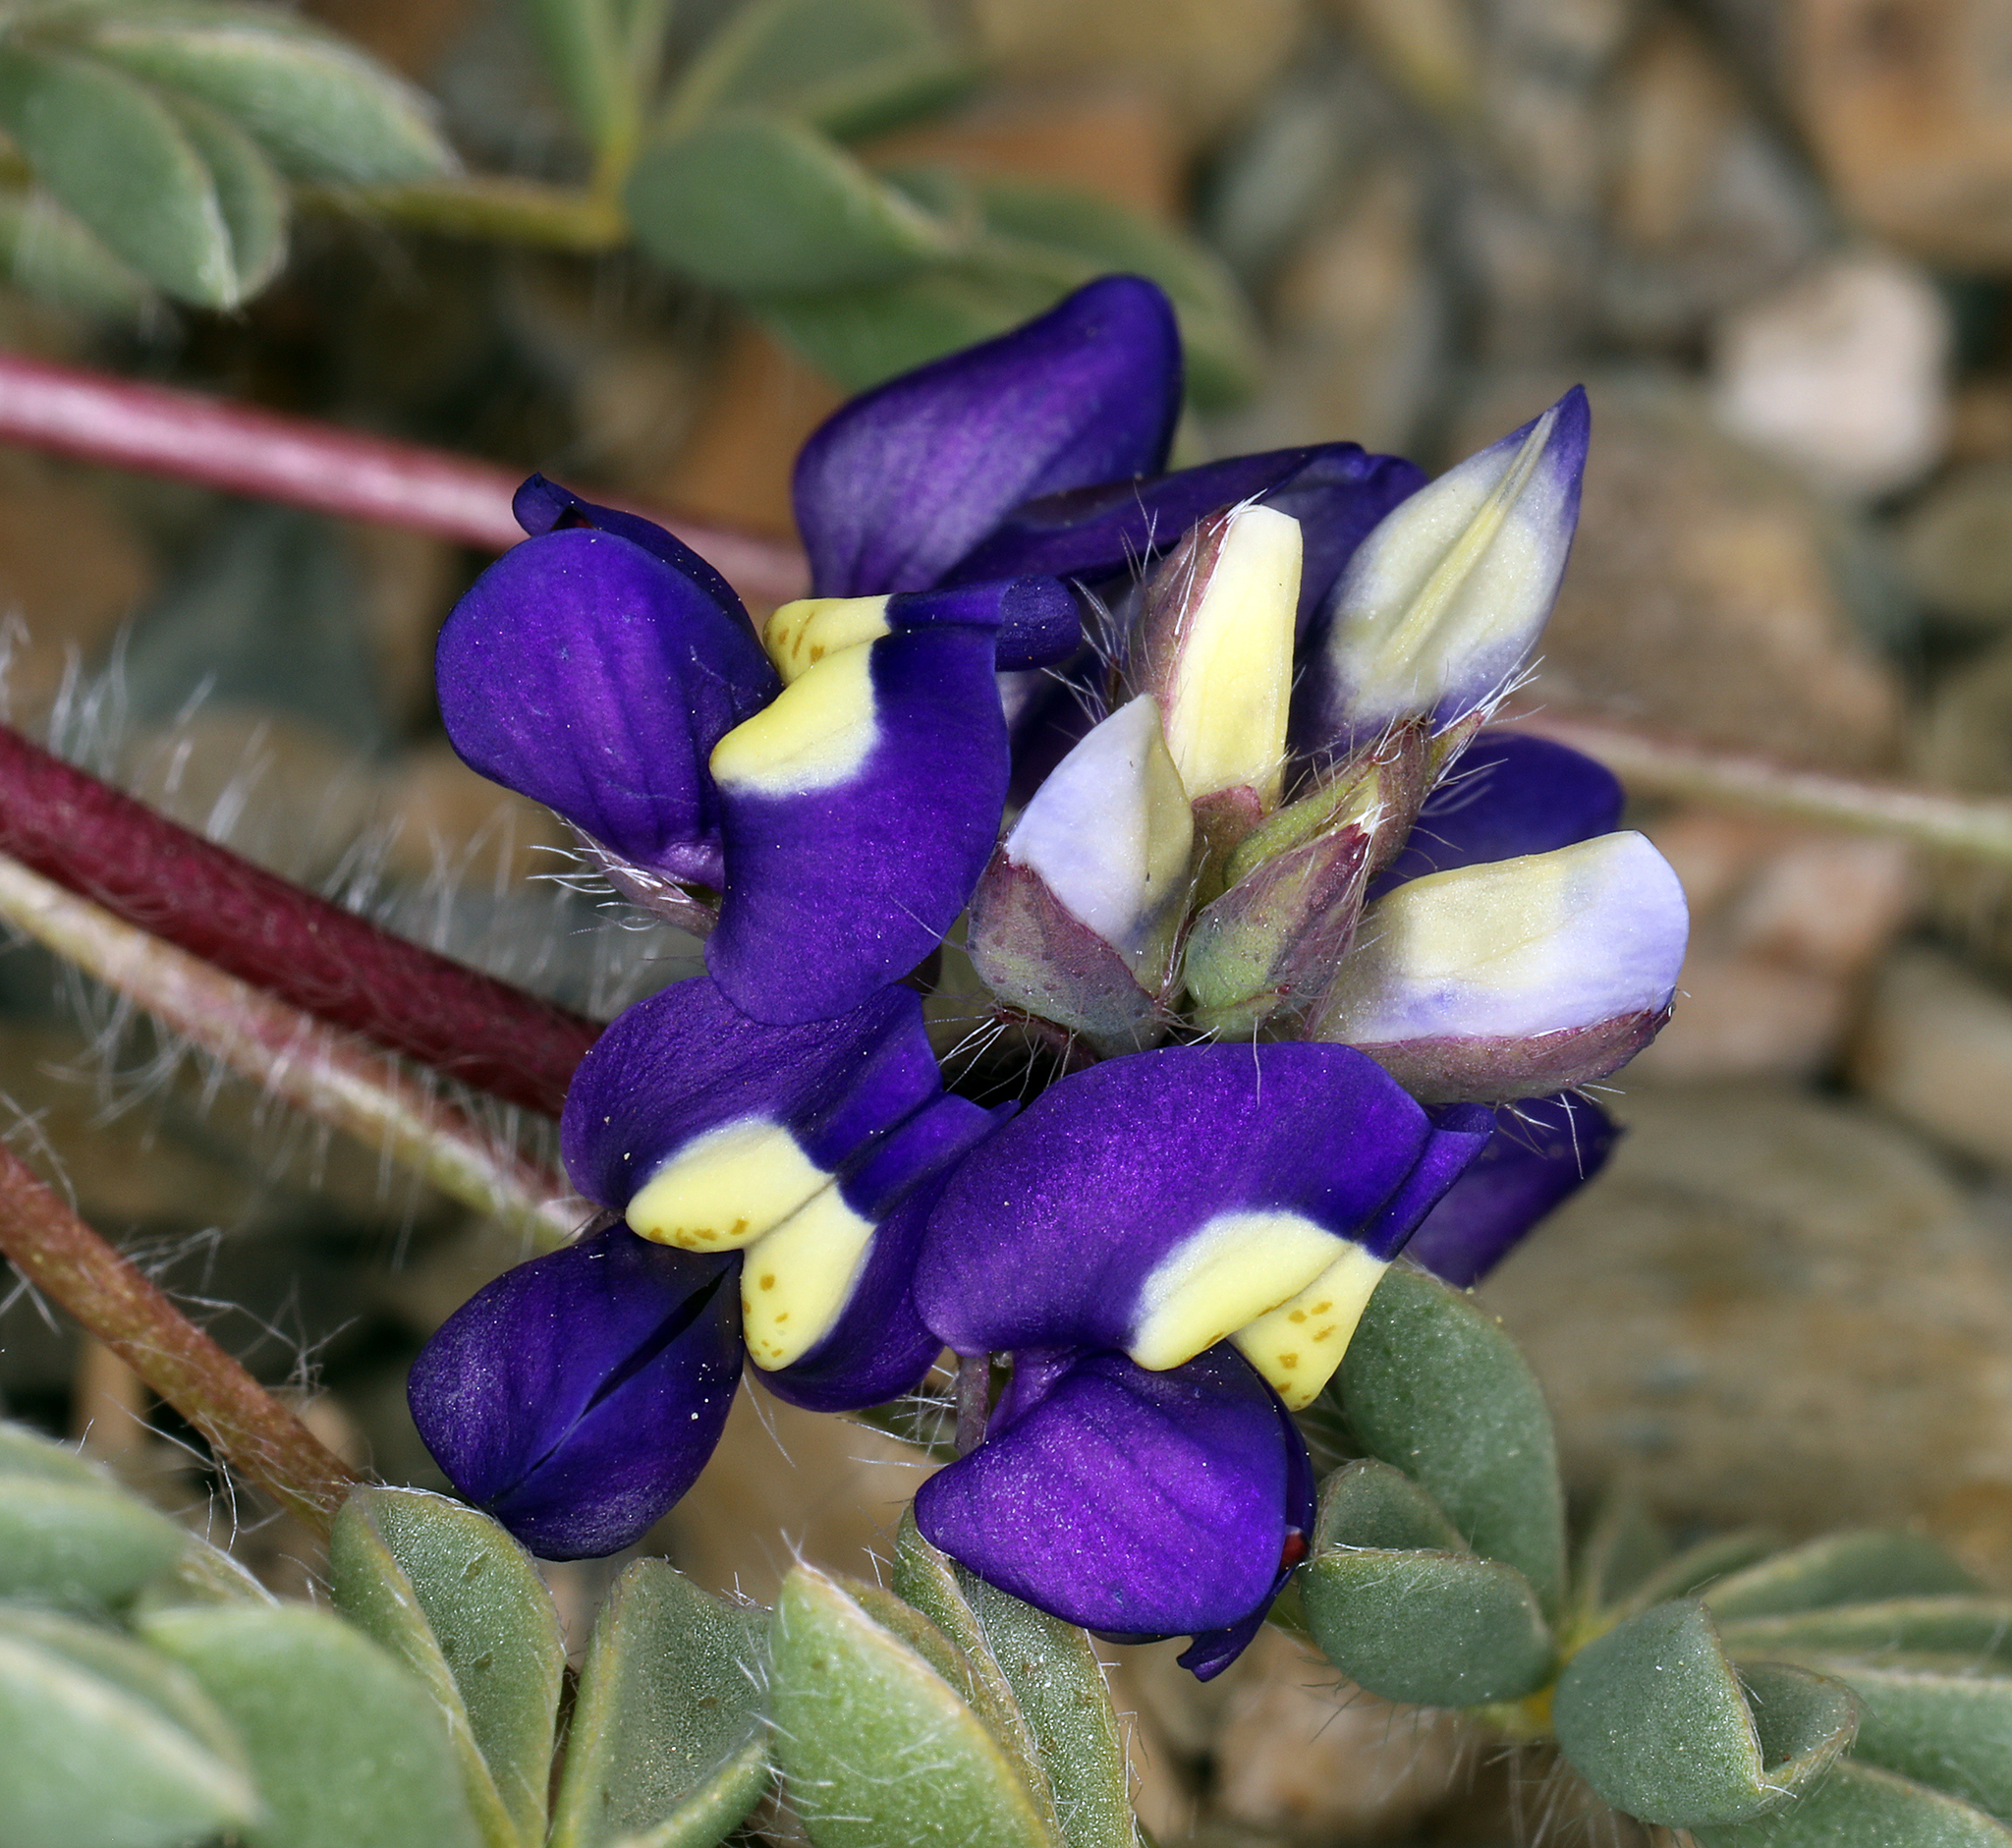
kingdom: Plantae
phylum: Tracheophyta
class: Magnoliopsida
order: Fabales
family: Fabaceae
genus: Lupinus
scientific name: Lupinus flavoculatus
